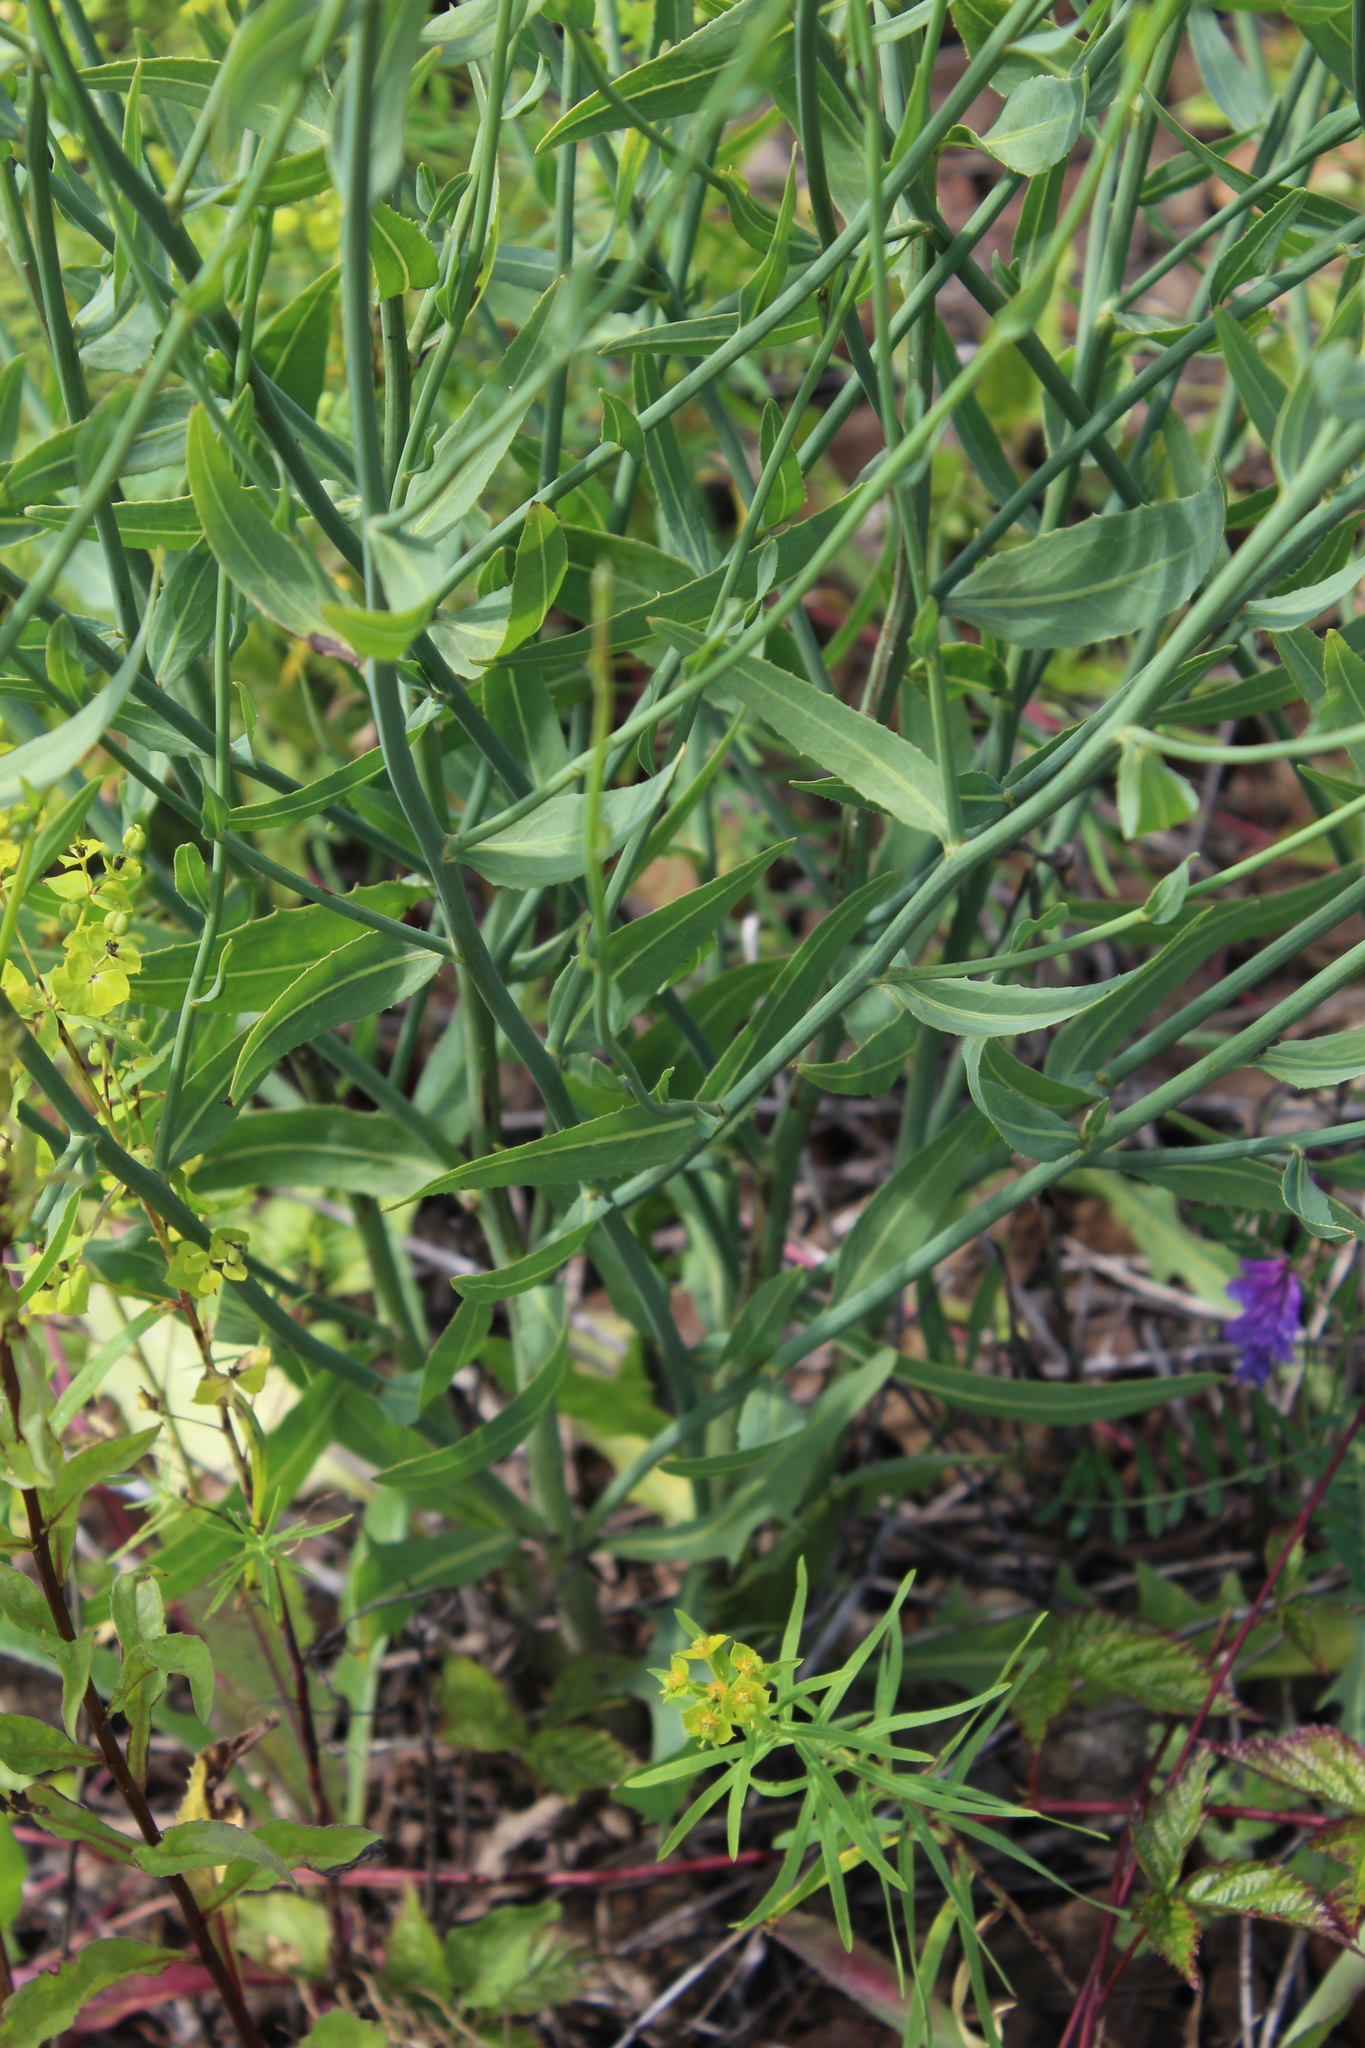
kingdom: Plantae
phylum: Tracheophyta
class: Magnoliopsida
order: Asterales
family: Asteraceae
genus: Chondrilla
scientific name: Chondrilla juncea
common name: Skeleton weed
